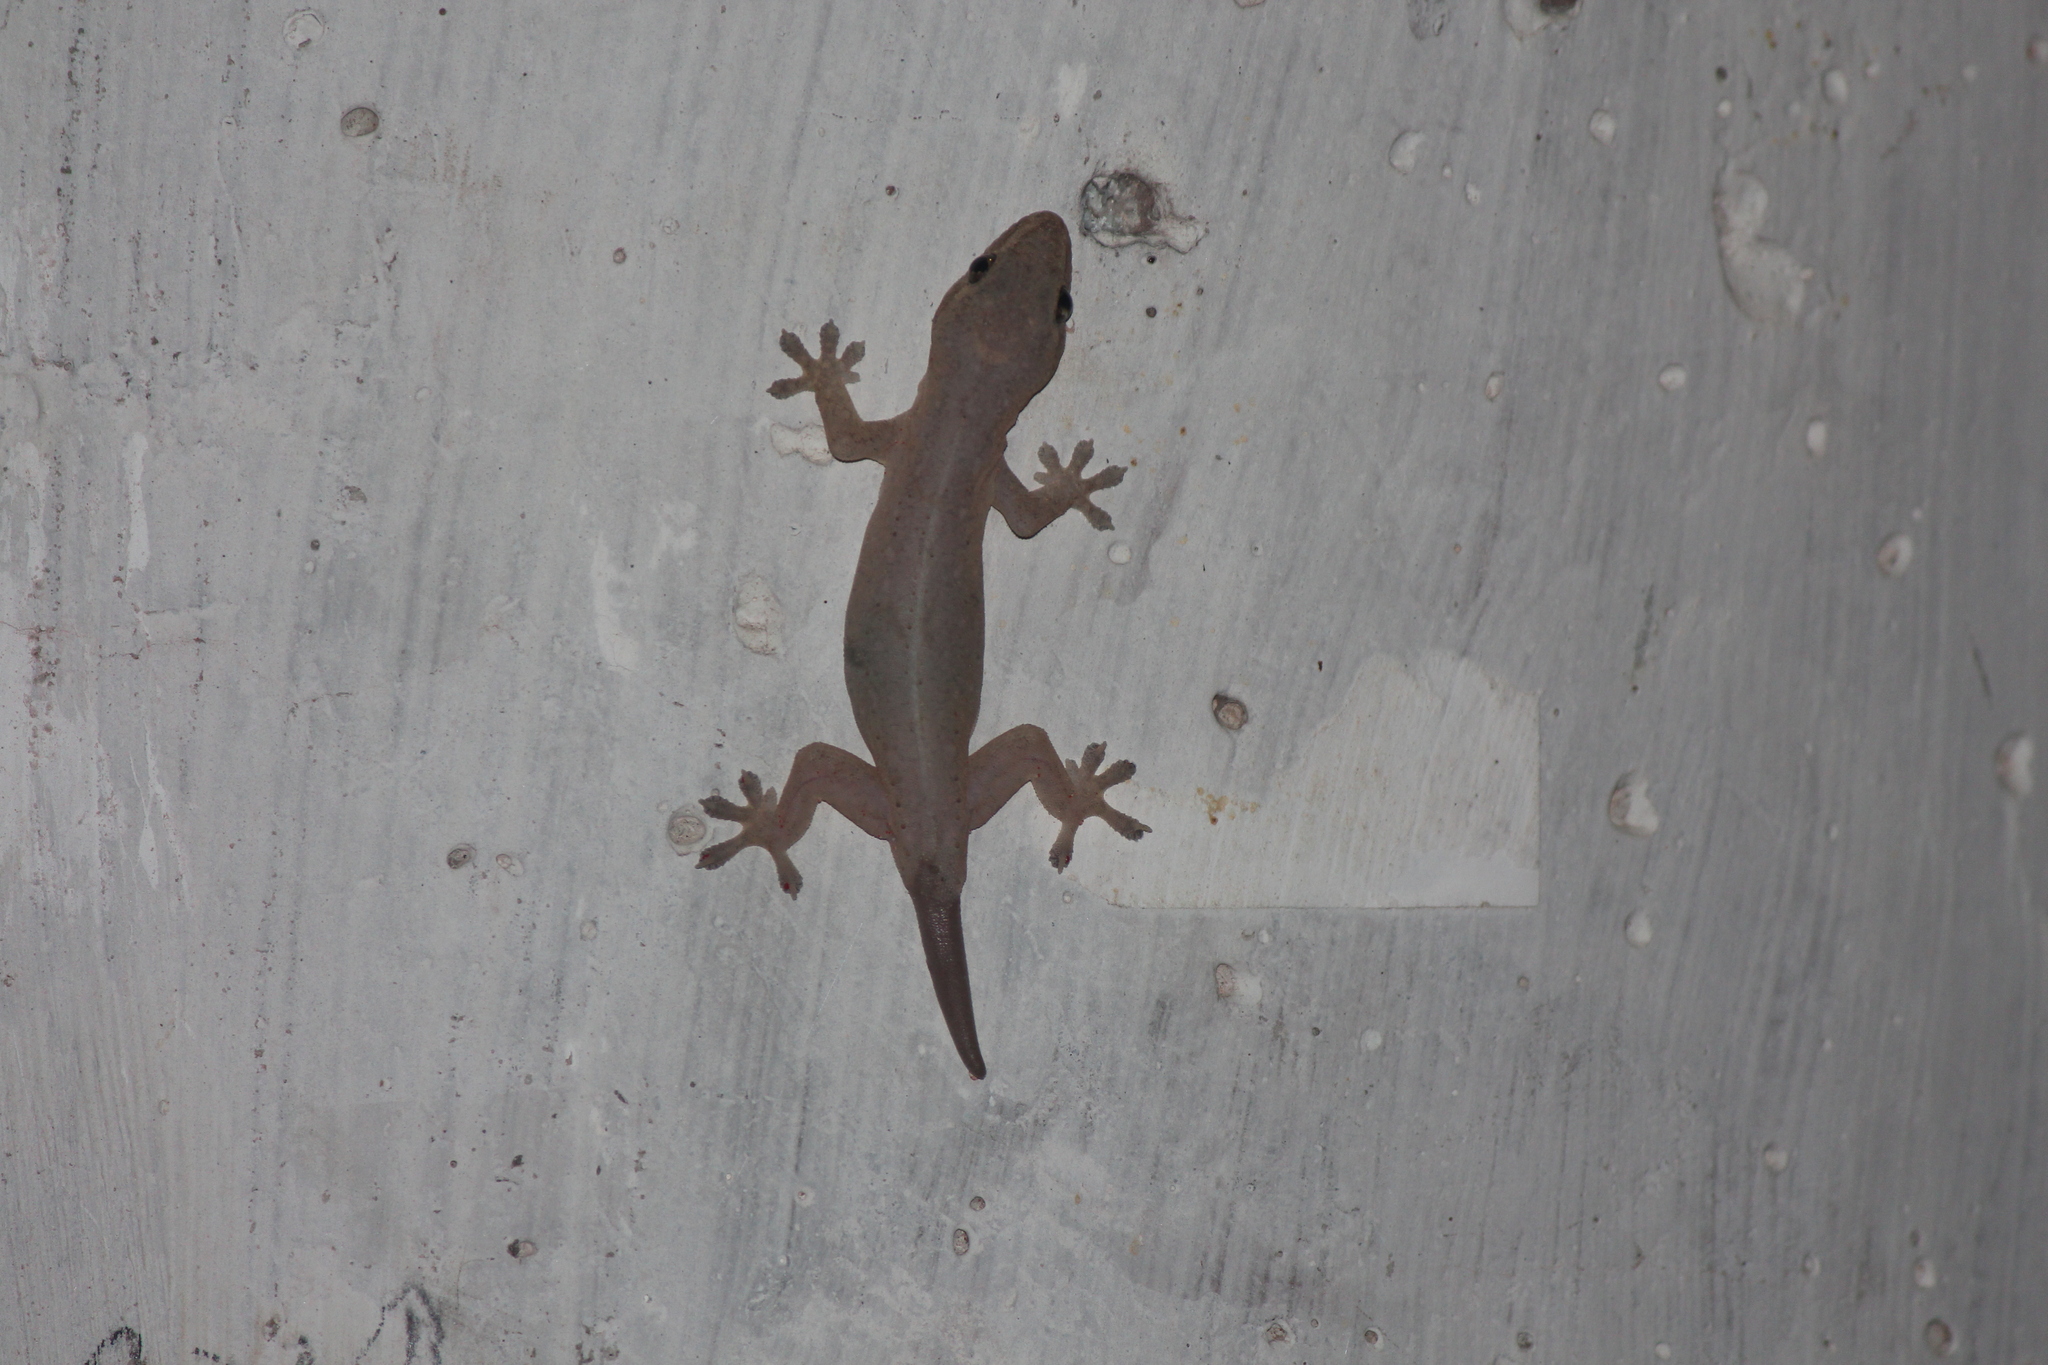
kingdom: Animalia
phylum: Chordata
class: Squamata
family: Gekkonidae
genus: Hemidactylus
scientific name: Hemidactylus frenatus
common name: Common house gecko
